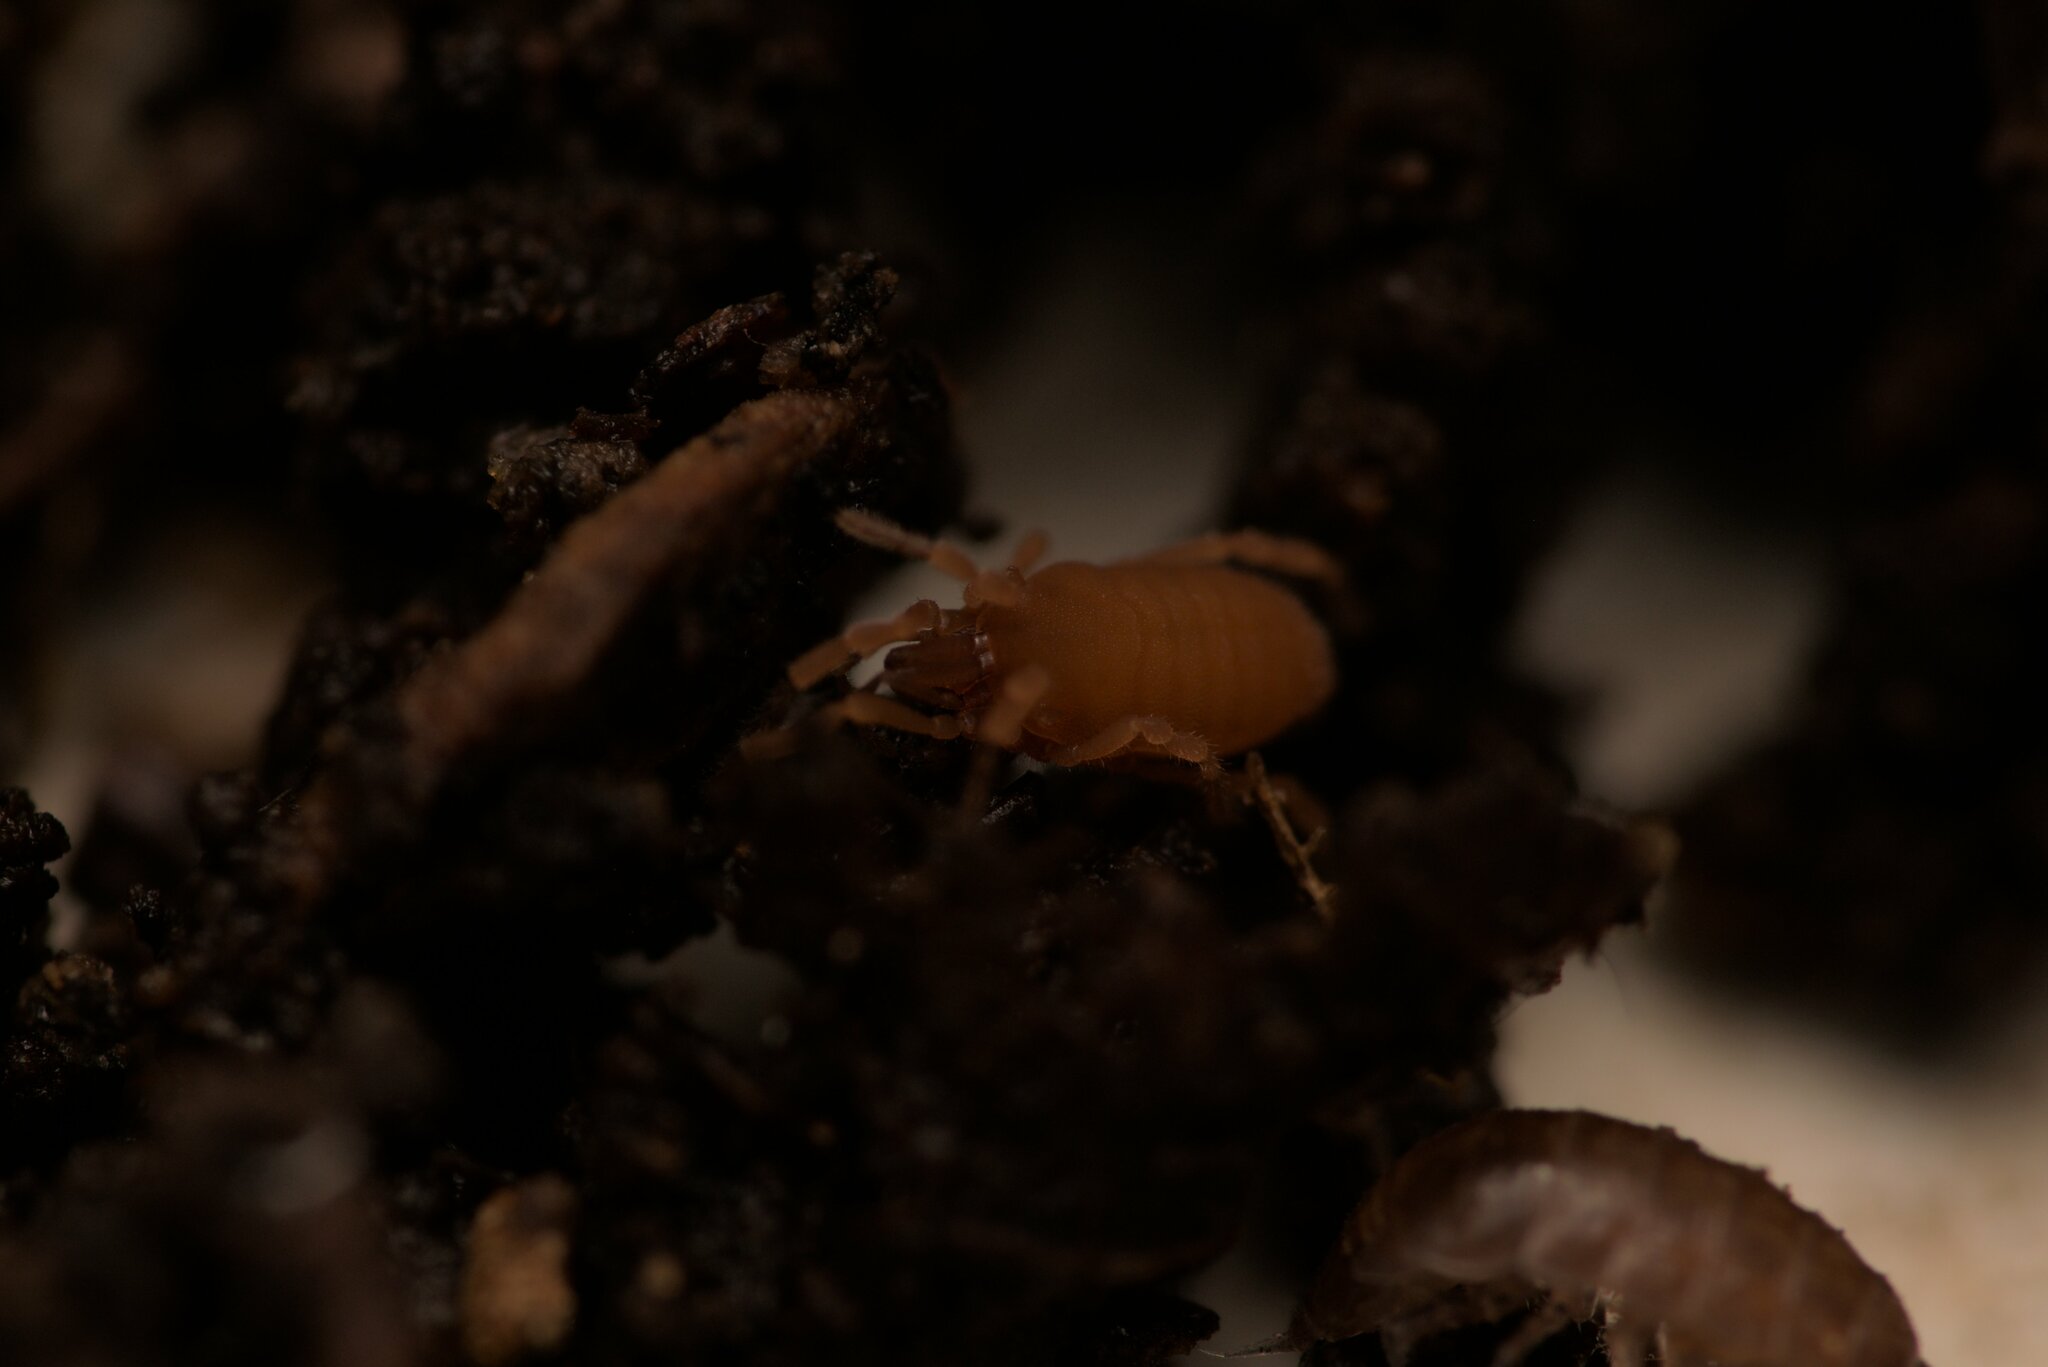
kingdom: Animalia
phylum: Arthropoda
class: Arachnida
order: Opiliones
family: Sironidae
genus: Siro
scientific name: Siro rubens
